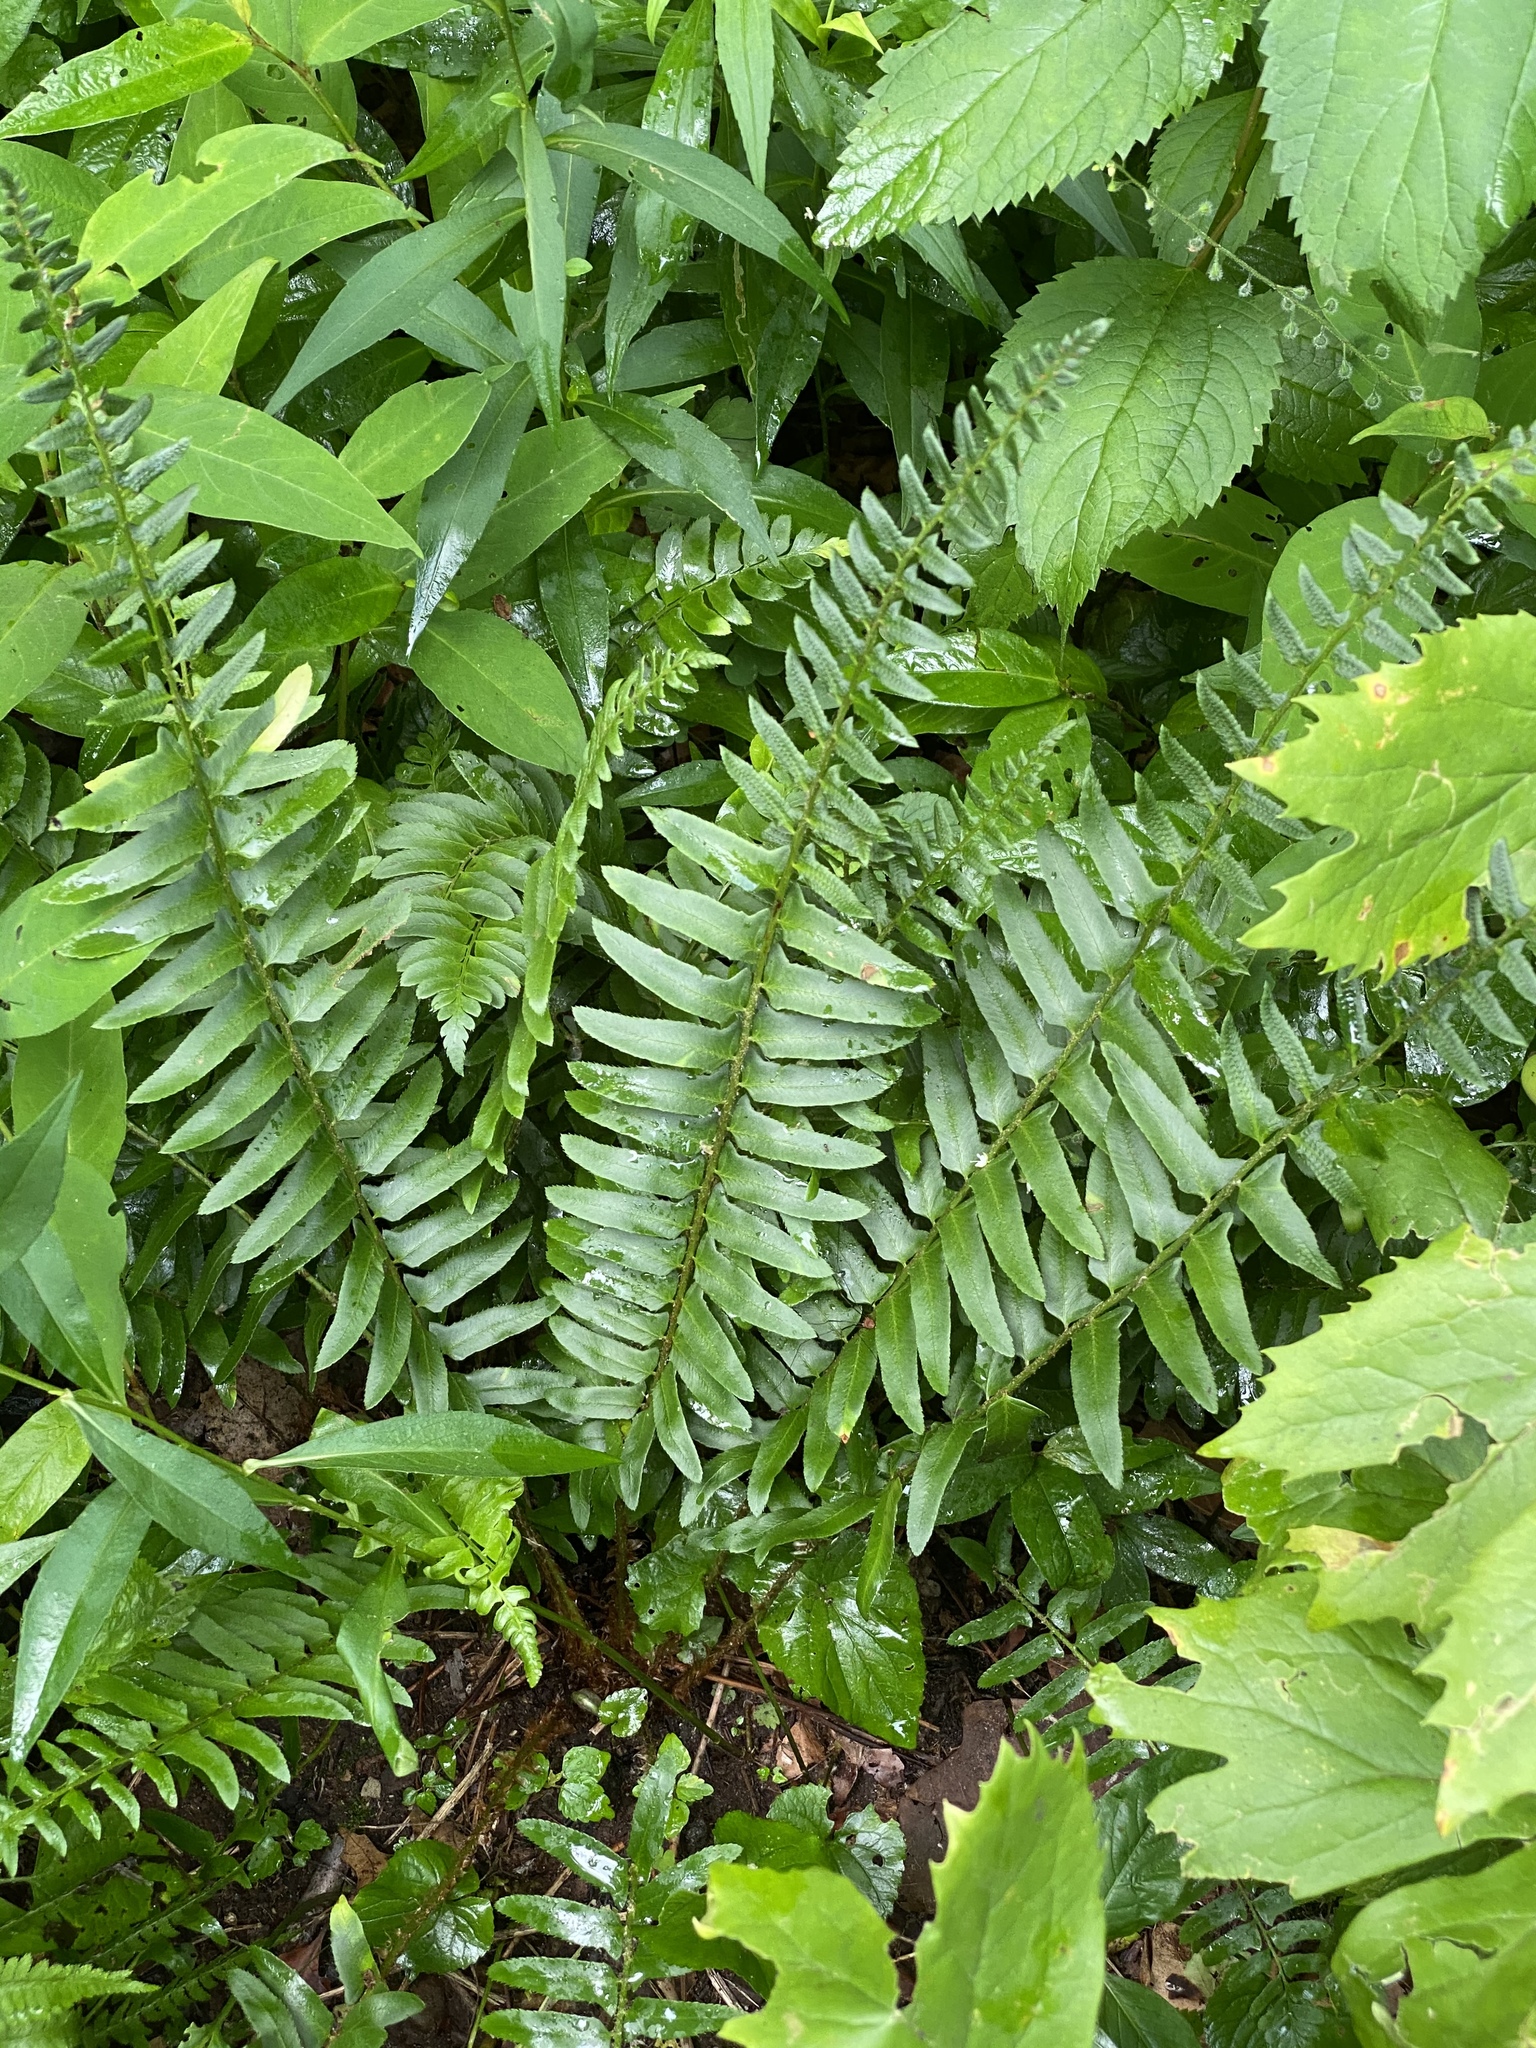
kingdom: Plantae
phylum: Tracheophyta
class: Polypodiopsida
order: Polypodiales
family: Dryopteridaceae
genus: Polystichum
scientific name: Polystichum acrostichoides
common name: Christmas fern
